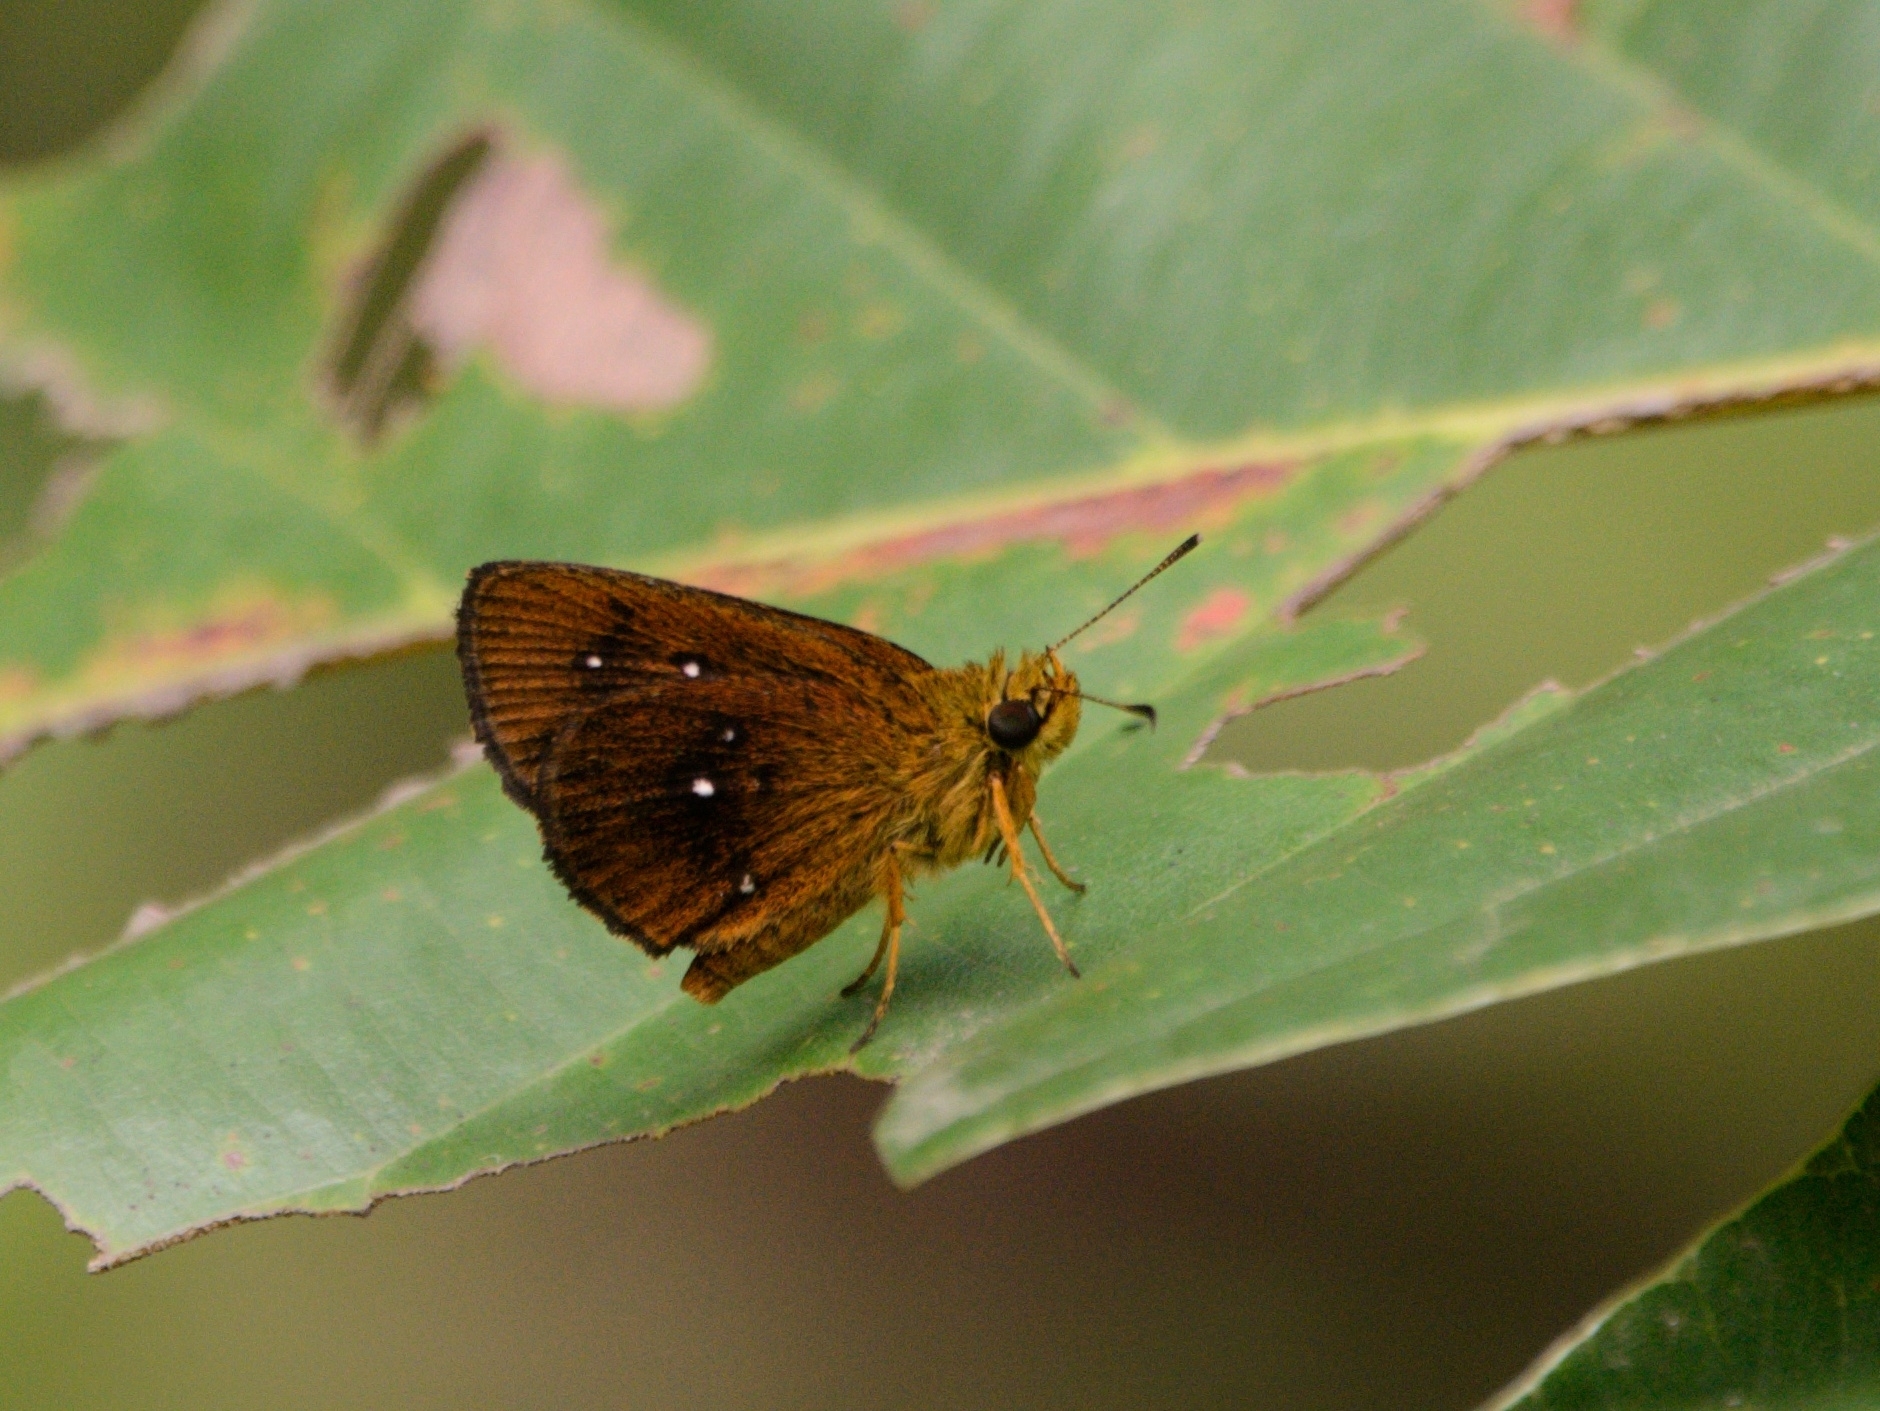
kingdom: Animalia
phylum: Arthropoda
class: Insecta
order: Lepidoptera
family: Hesperiidae
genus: Iambrix
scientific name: Iambrix salsala
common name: Chestnut bob
